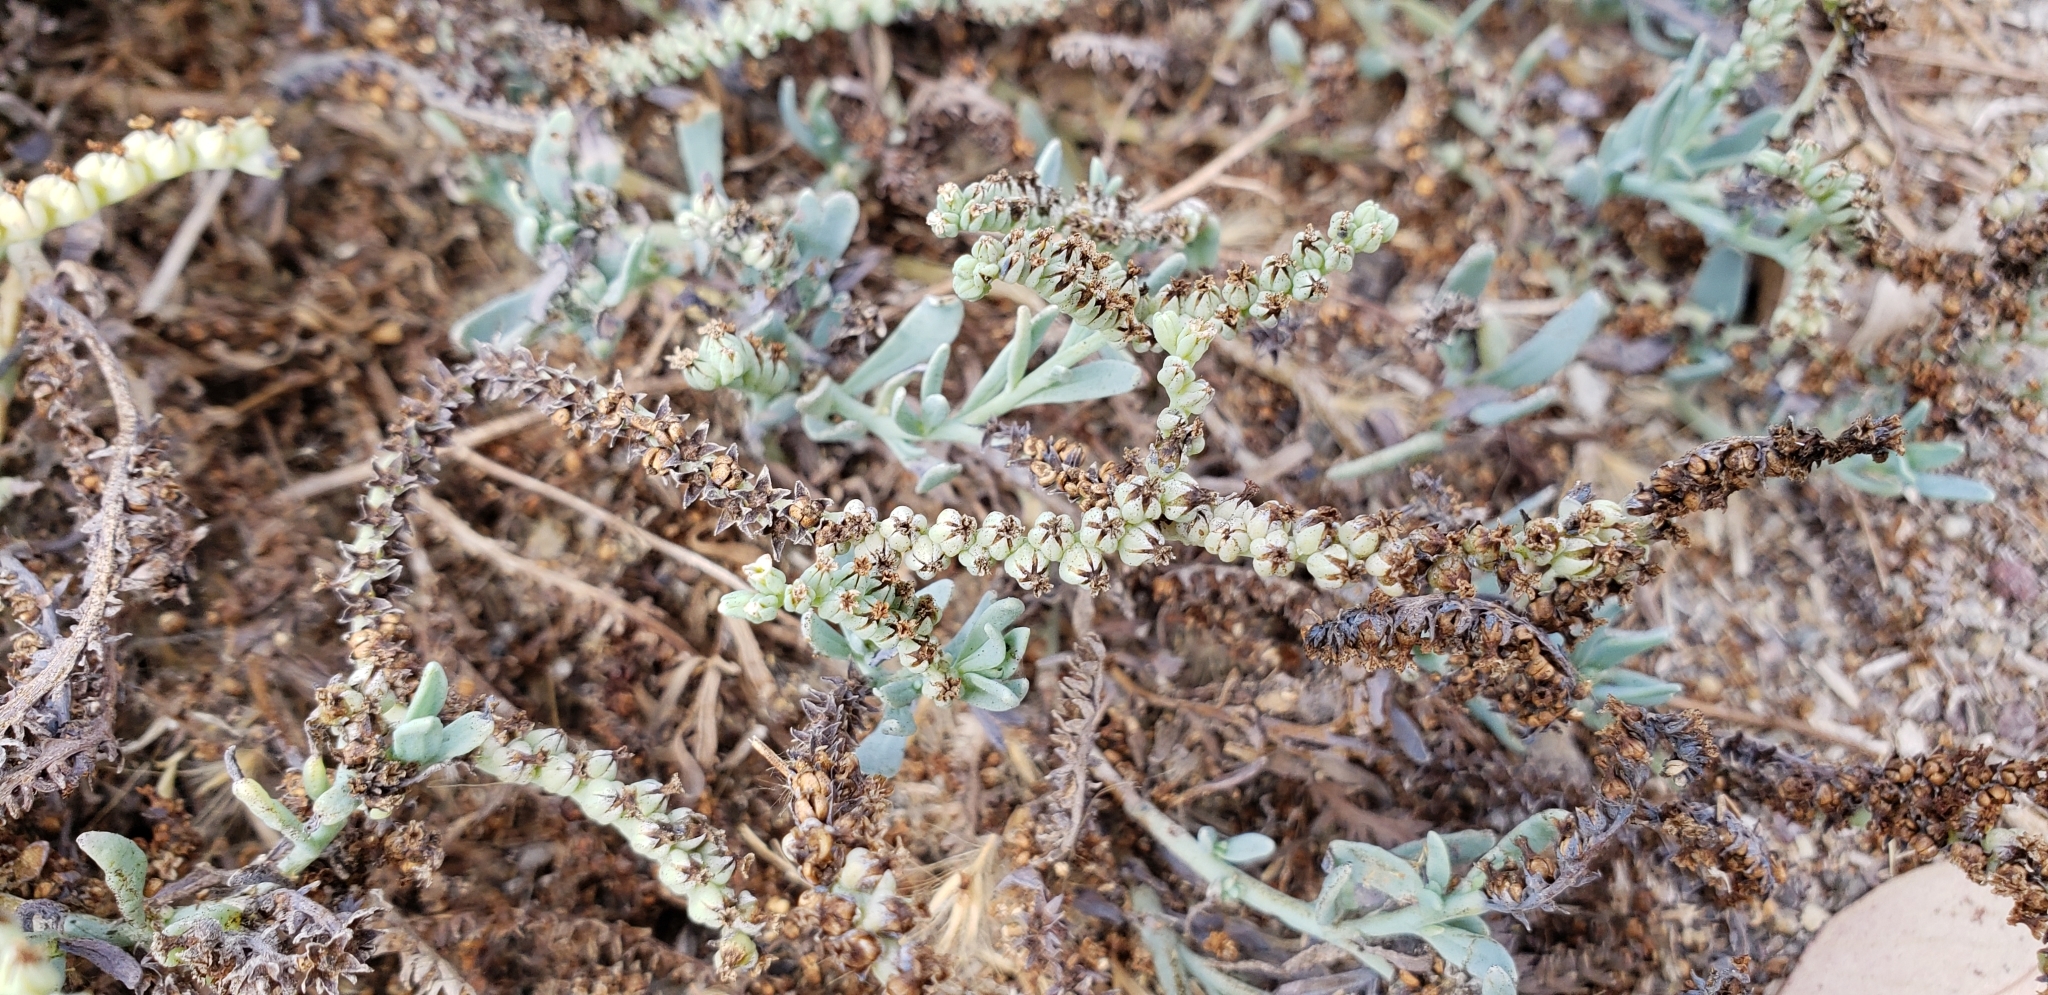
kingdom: Plantae
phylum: Tracheophyta
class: Magnoliopsida
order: Boraginales
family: Heliotropiaceae
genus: Heliotropium
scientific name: Heliotropium curassavicum
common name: Seaside heliotrope
